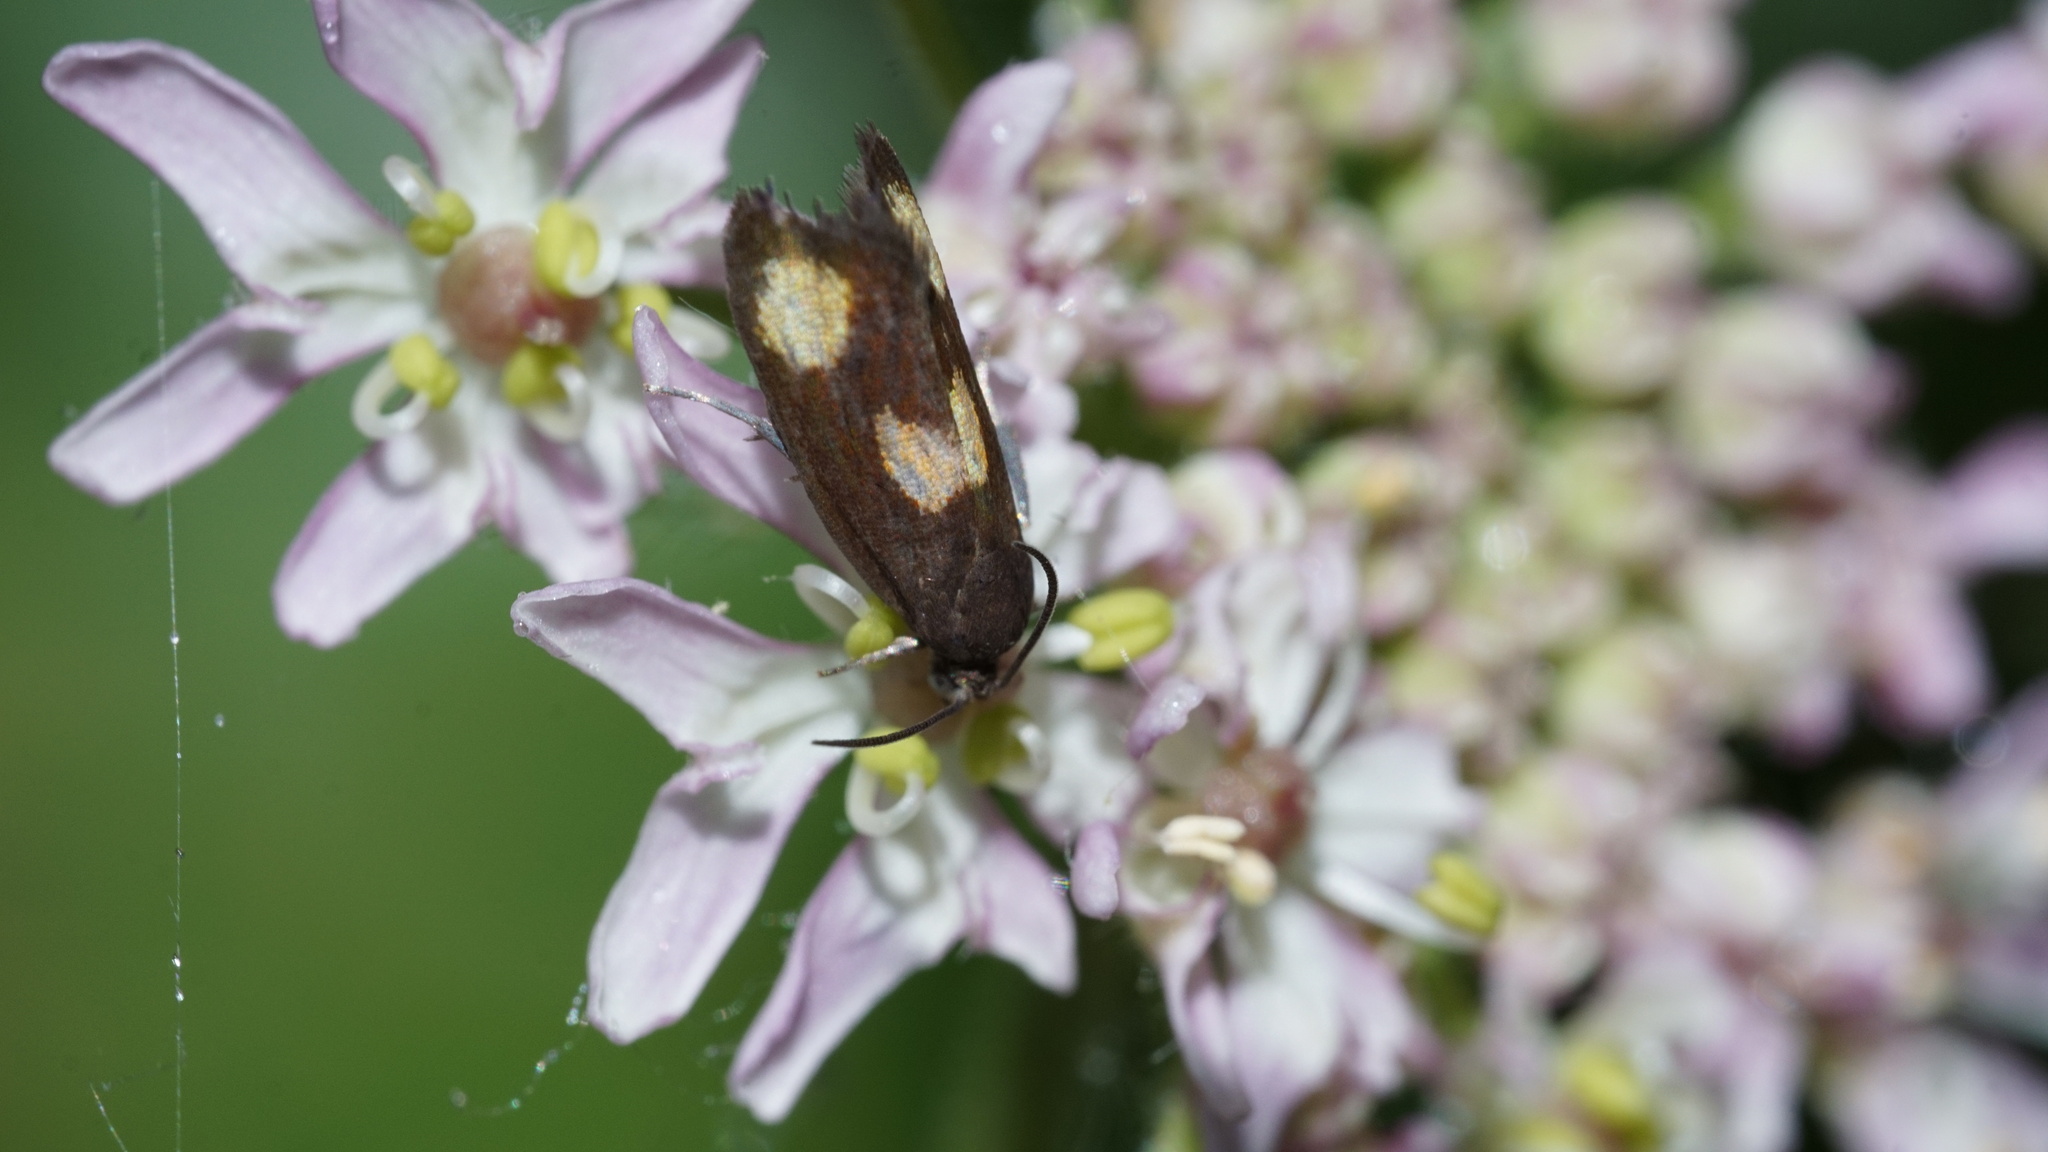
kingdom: Animalia
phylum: Arthropoda
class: Insecta
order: Lepidoptera
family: Tortricidae
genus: Pammene
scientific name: Pammene aurana
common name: Orange-spot piercer
